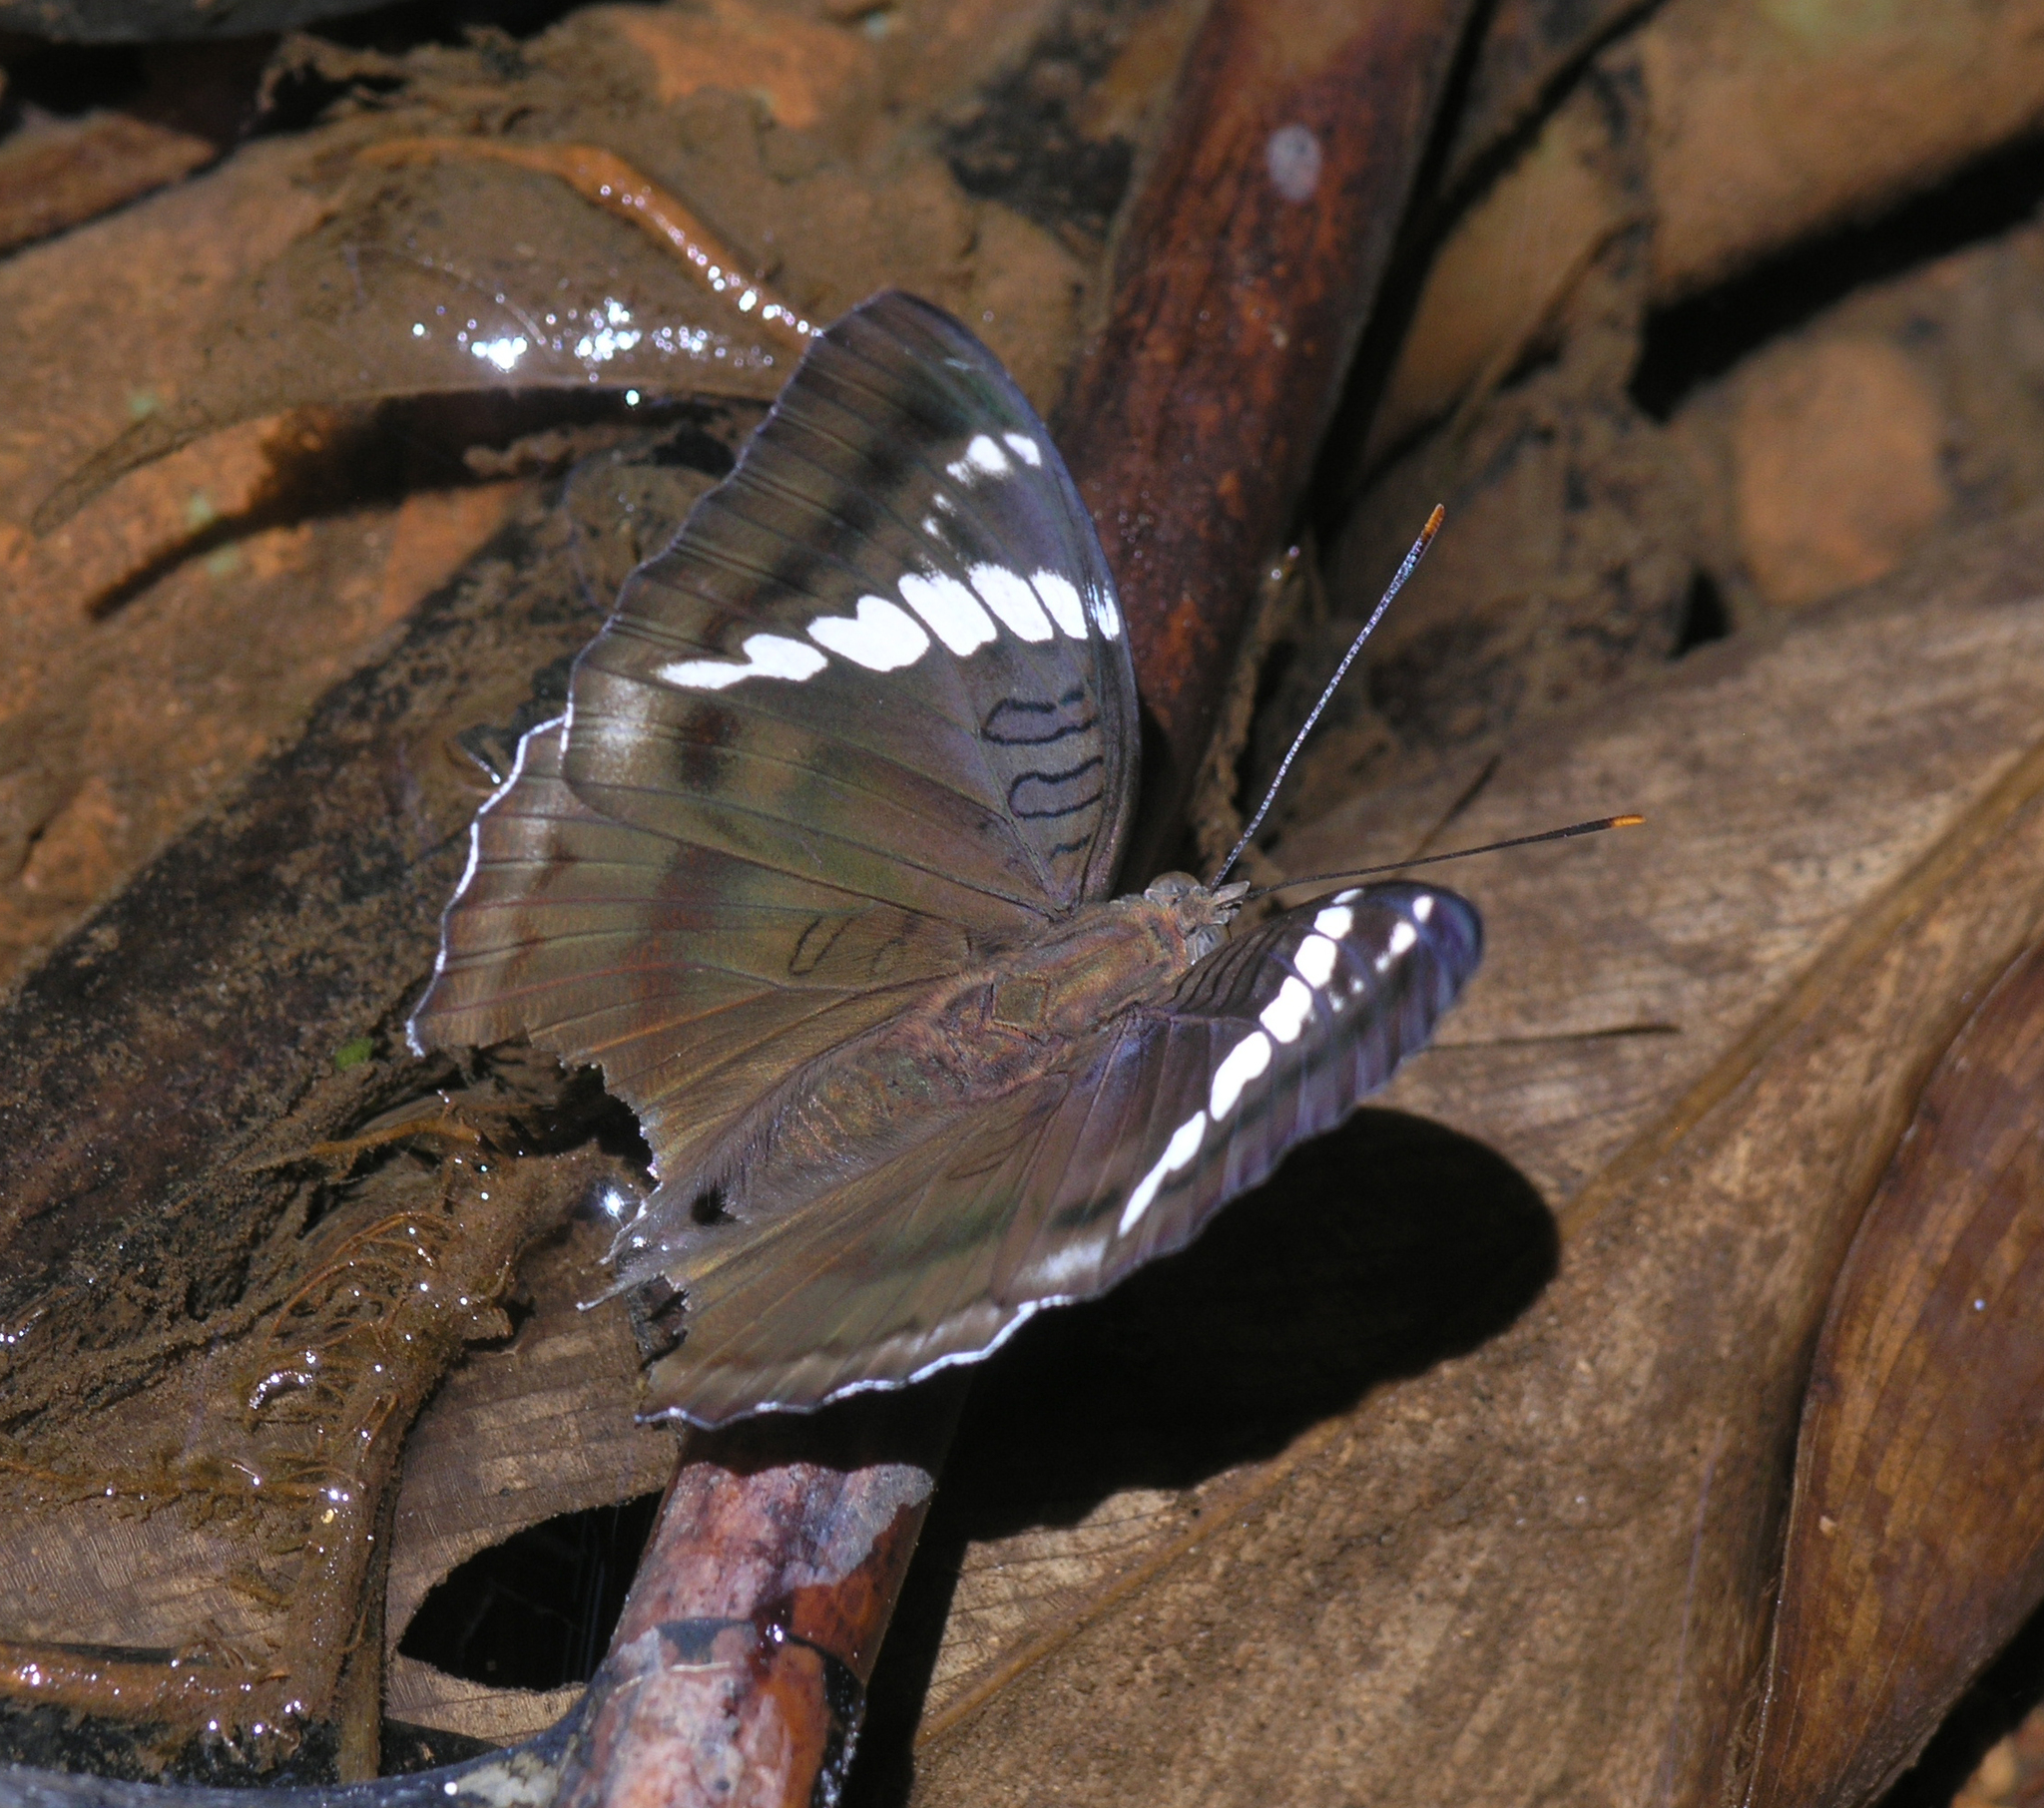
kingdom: Animalia
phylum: Arthropoda
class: Insecta
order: Lepidoptera
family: Nymphalidae
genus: Euthalia
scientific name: Euthalia phemius
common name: White-edged blue baron
